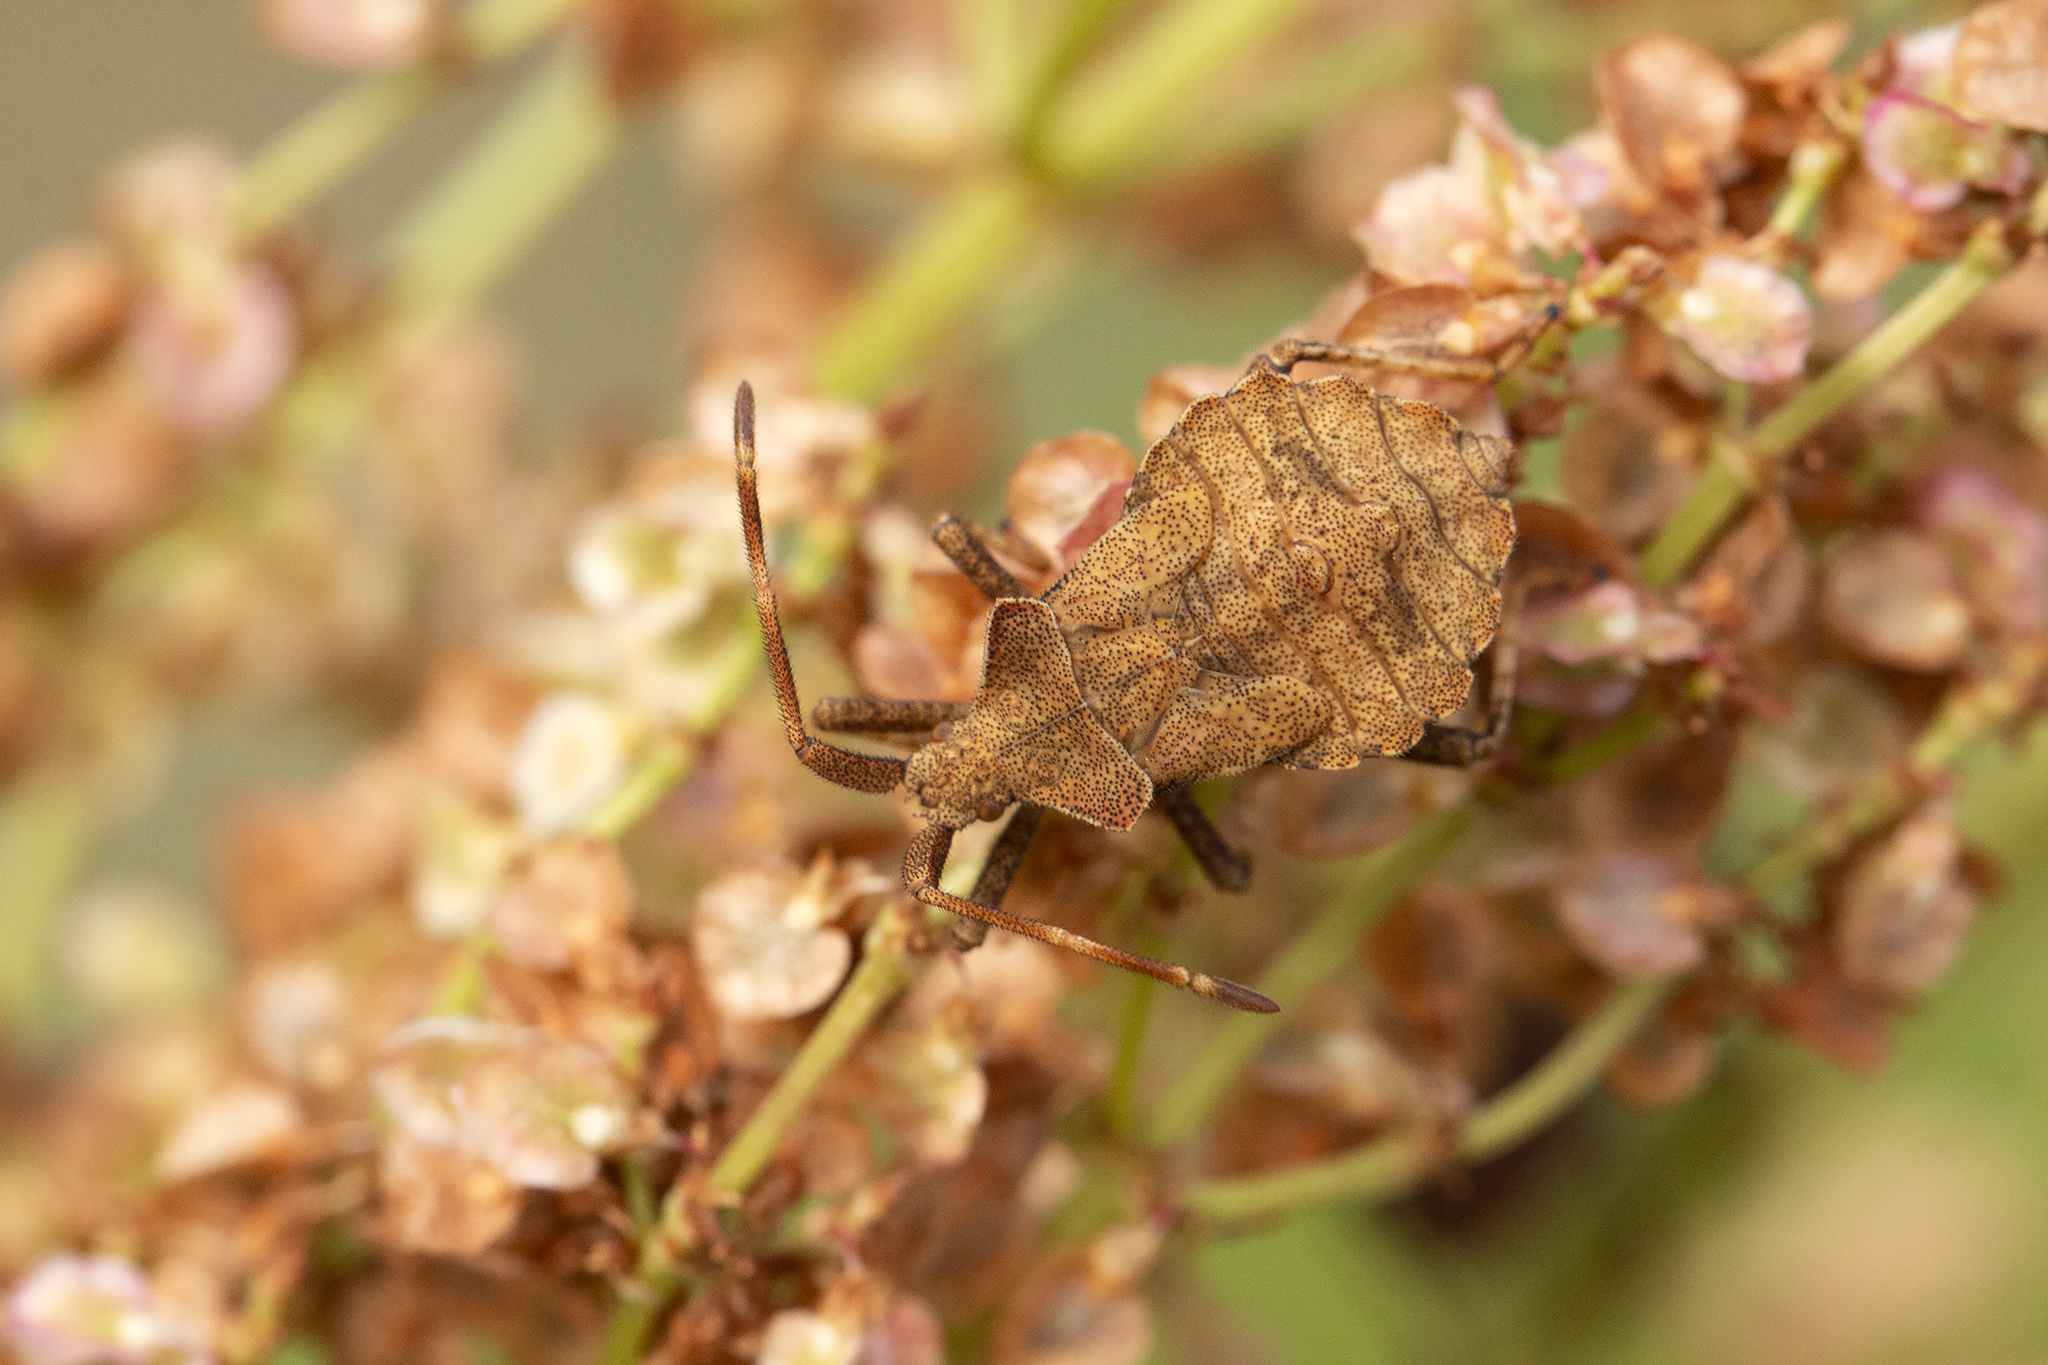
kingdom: Animalia
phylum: Arthropoda
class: Insecta
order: Hemiptera
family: Coreidae
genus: Coreus
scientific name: Coreus marginatus
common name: Dock bug
